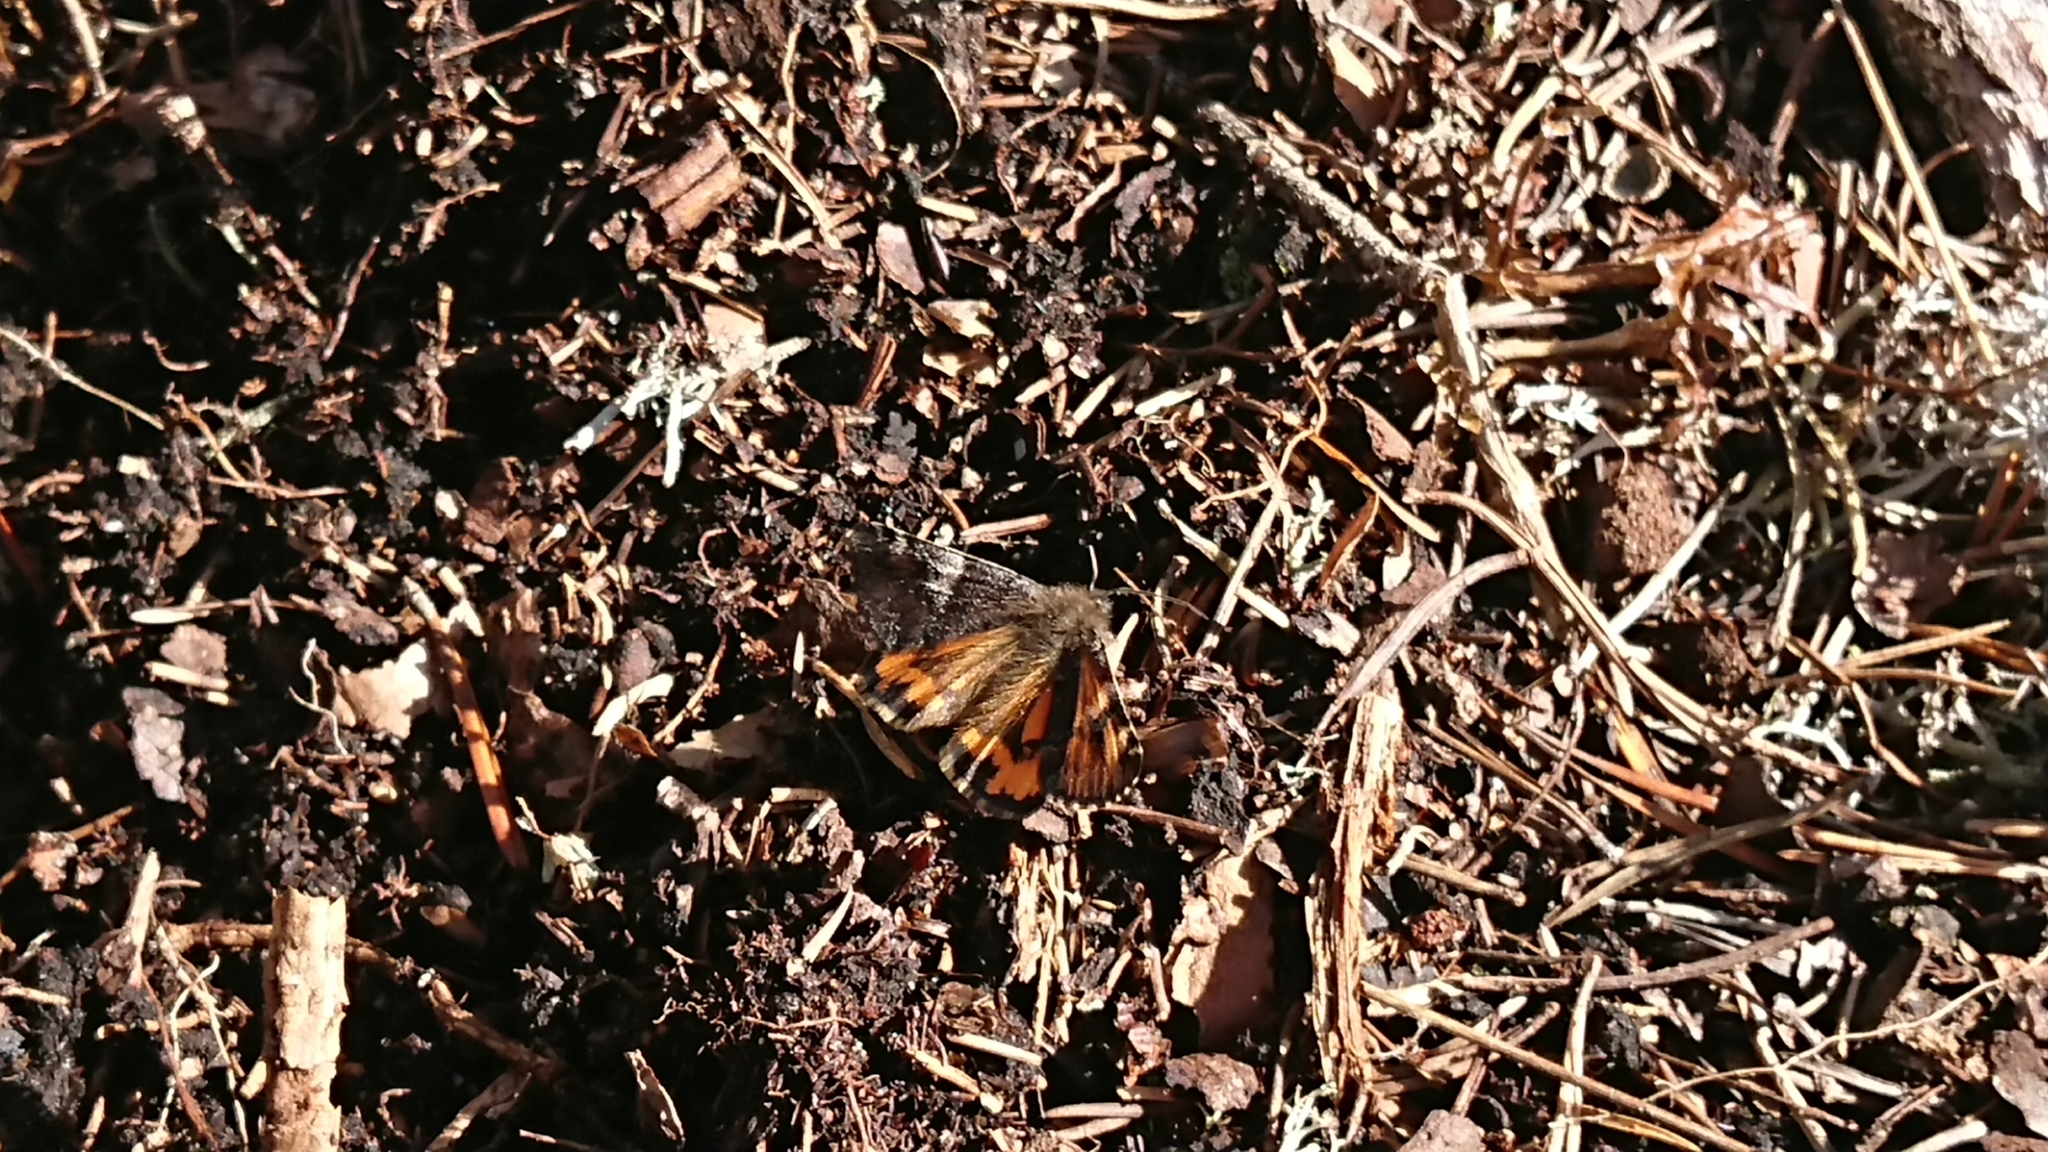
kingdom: Animalia
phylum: Arthropoda
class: Insecta
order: Lepidoptera
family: Geometridae
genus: Archiearis
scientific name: Archiearis parthenias
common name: Orange underwing
